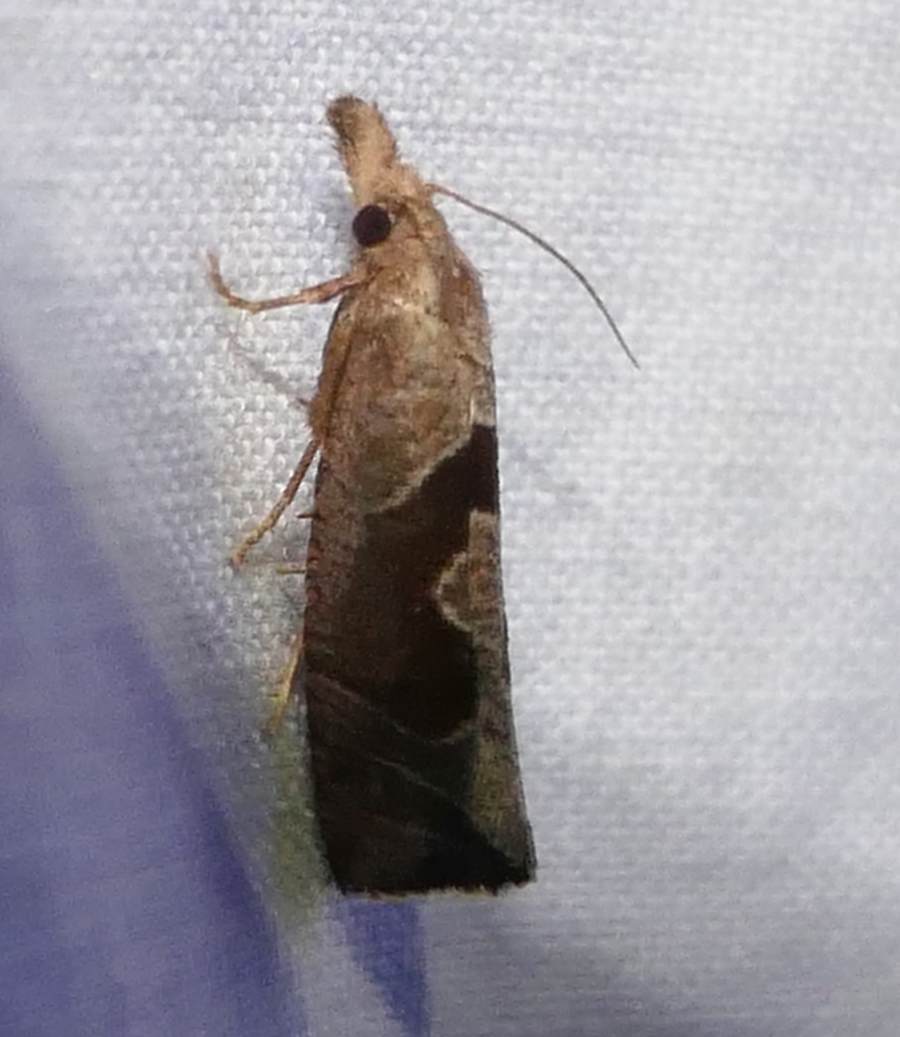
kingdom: Animalia
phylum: Arthropoda
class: Insecta
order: Lepidoptera
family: Tortricidae
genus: Pelochrista
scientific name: Pelochrista similiana
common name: Similar eucosma
